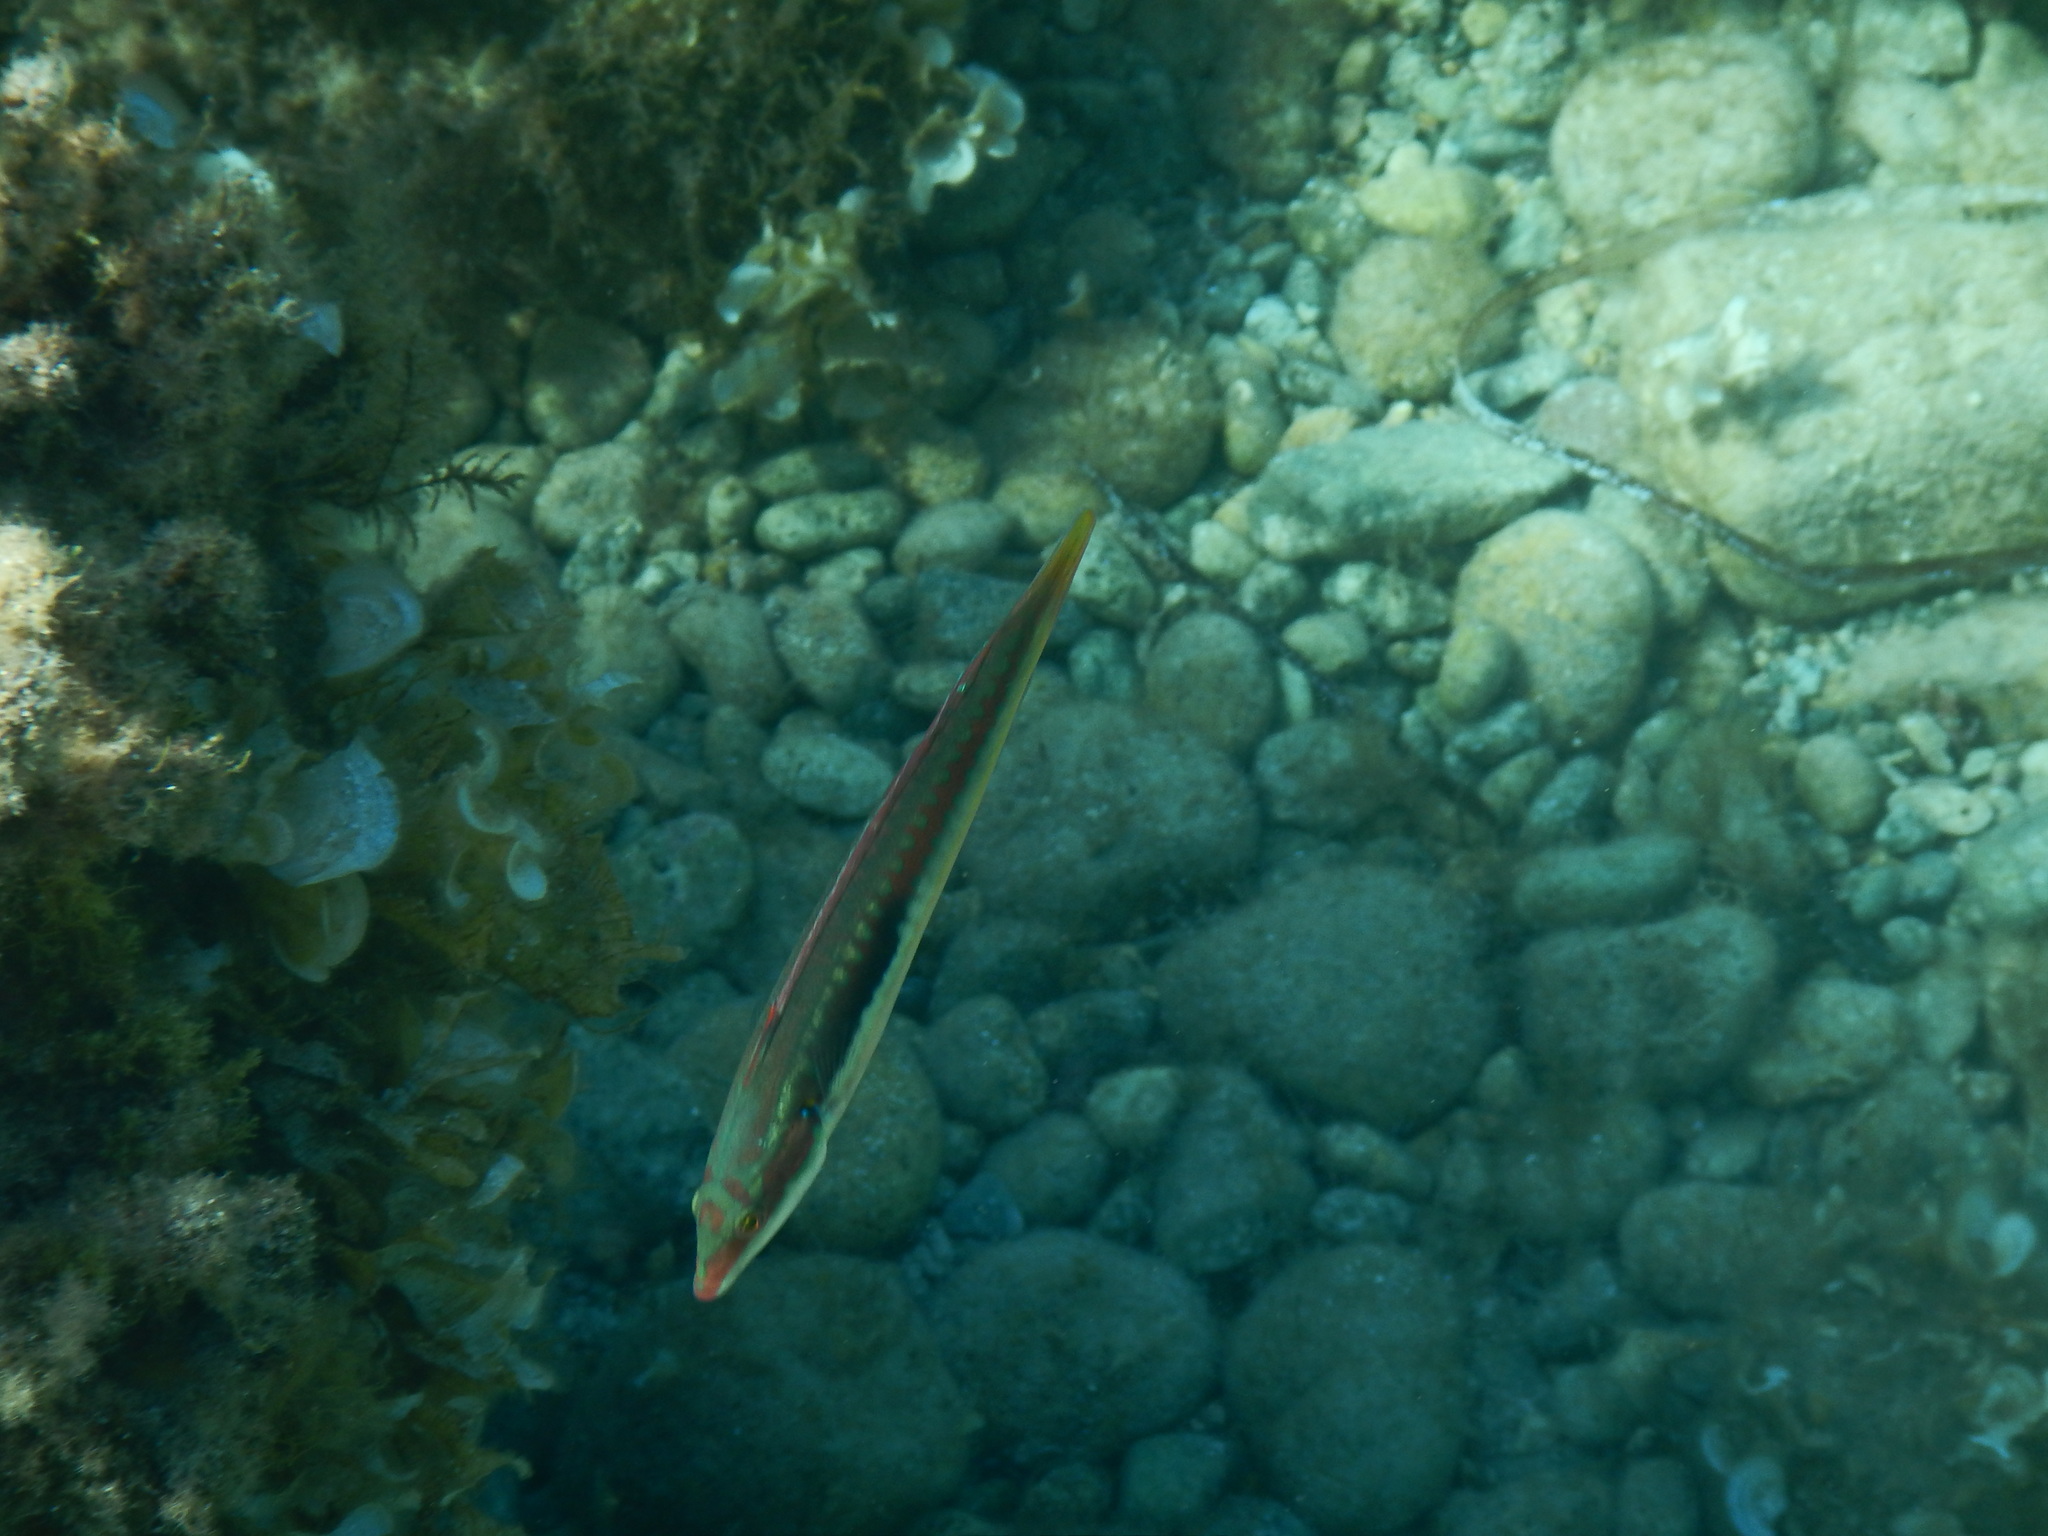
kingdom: Animalia
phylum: Chordata
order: Perciformes
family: Labridae
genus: Coris
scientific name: Coris julis
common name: Rainbow wrasse
